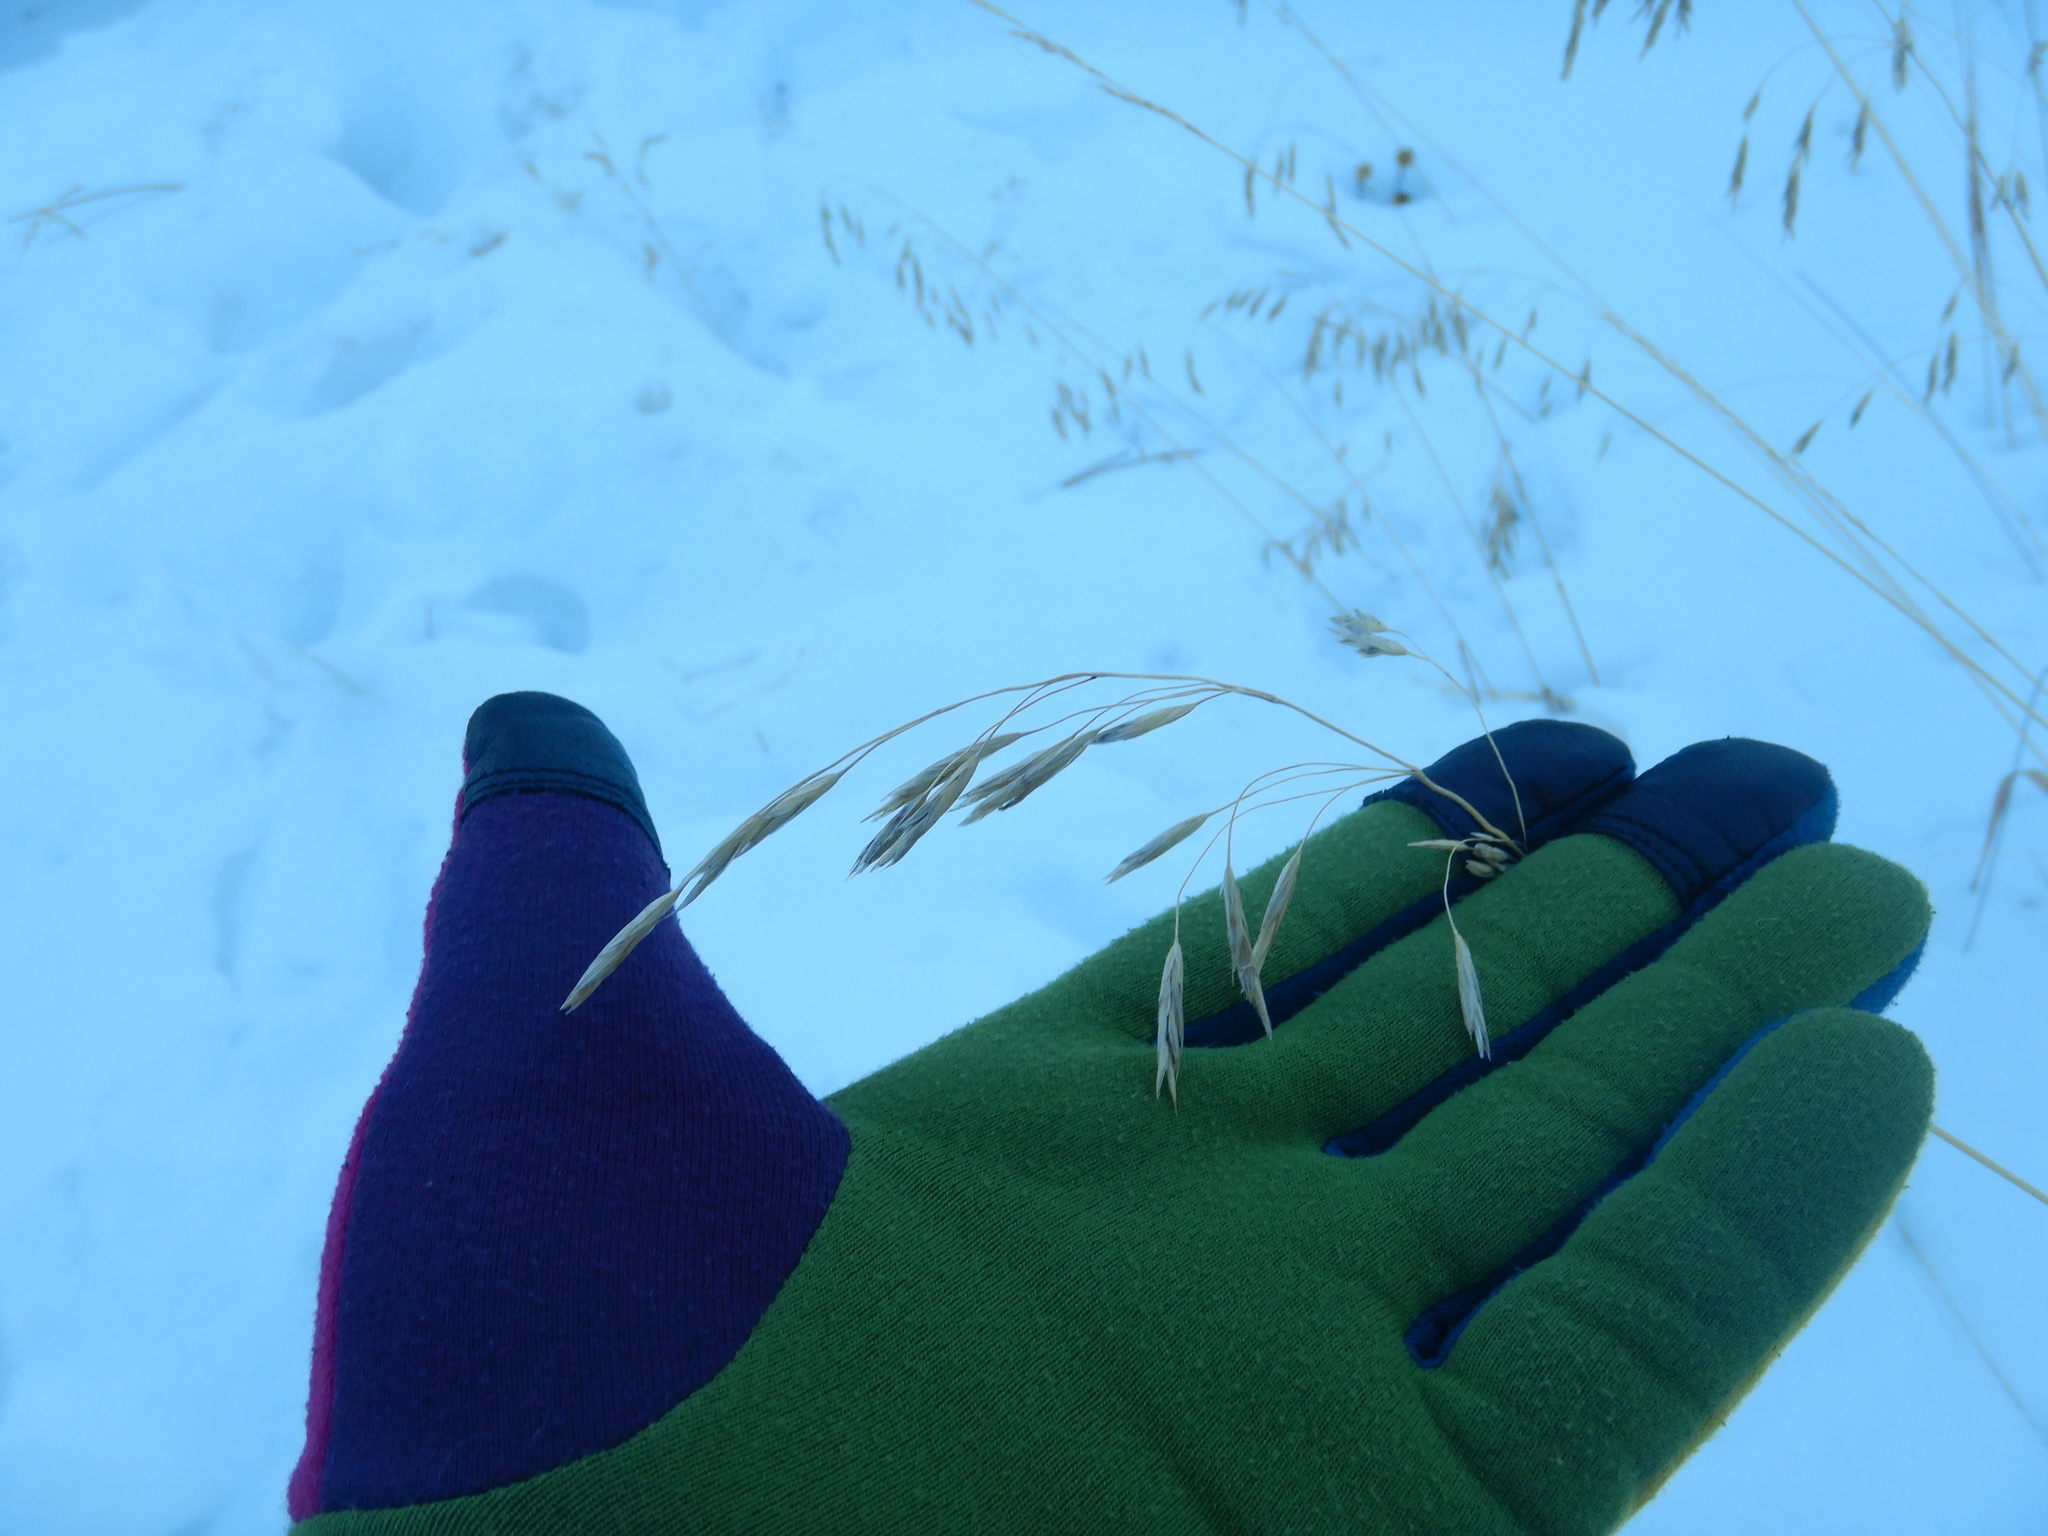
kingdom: Plantae
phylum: Tracheophyta
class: Liliopsida
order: Poales
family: Poaceae
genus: Bromus
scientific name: Bromus inermis
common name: Smooth brome
